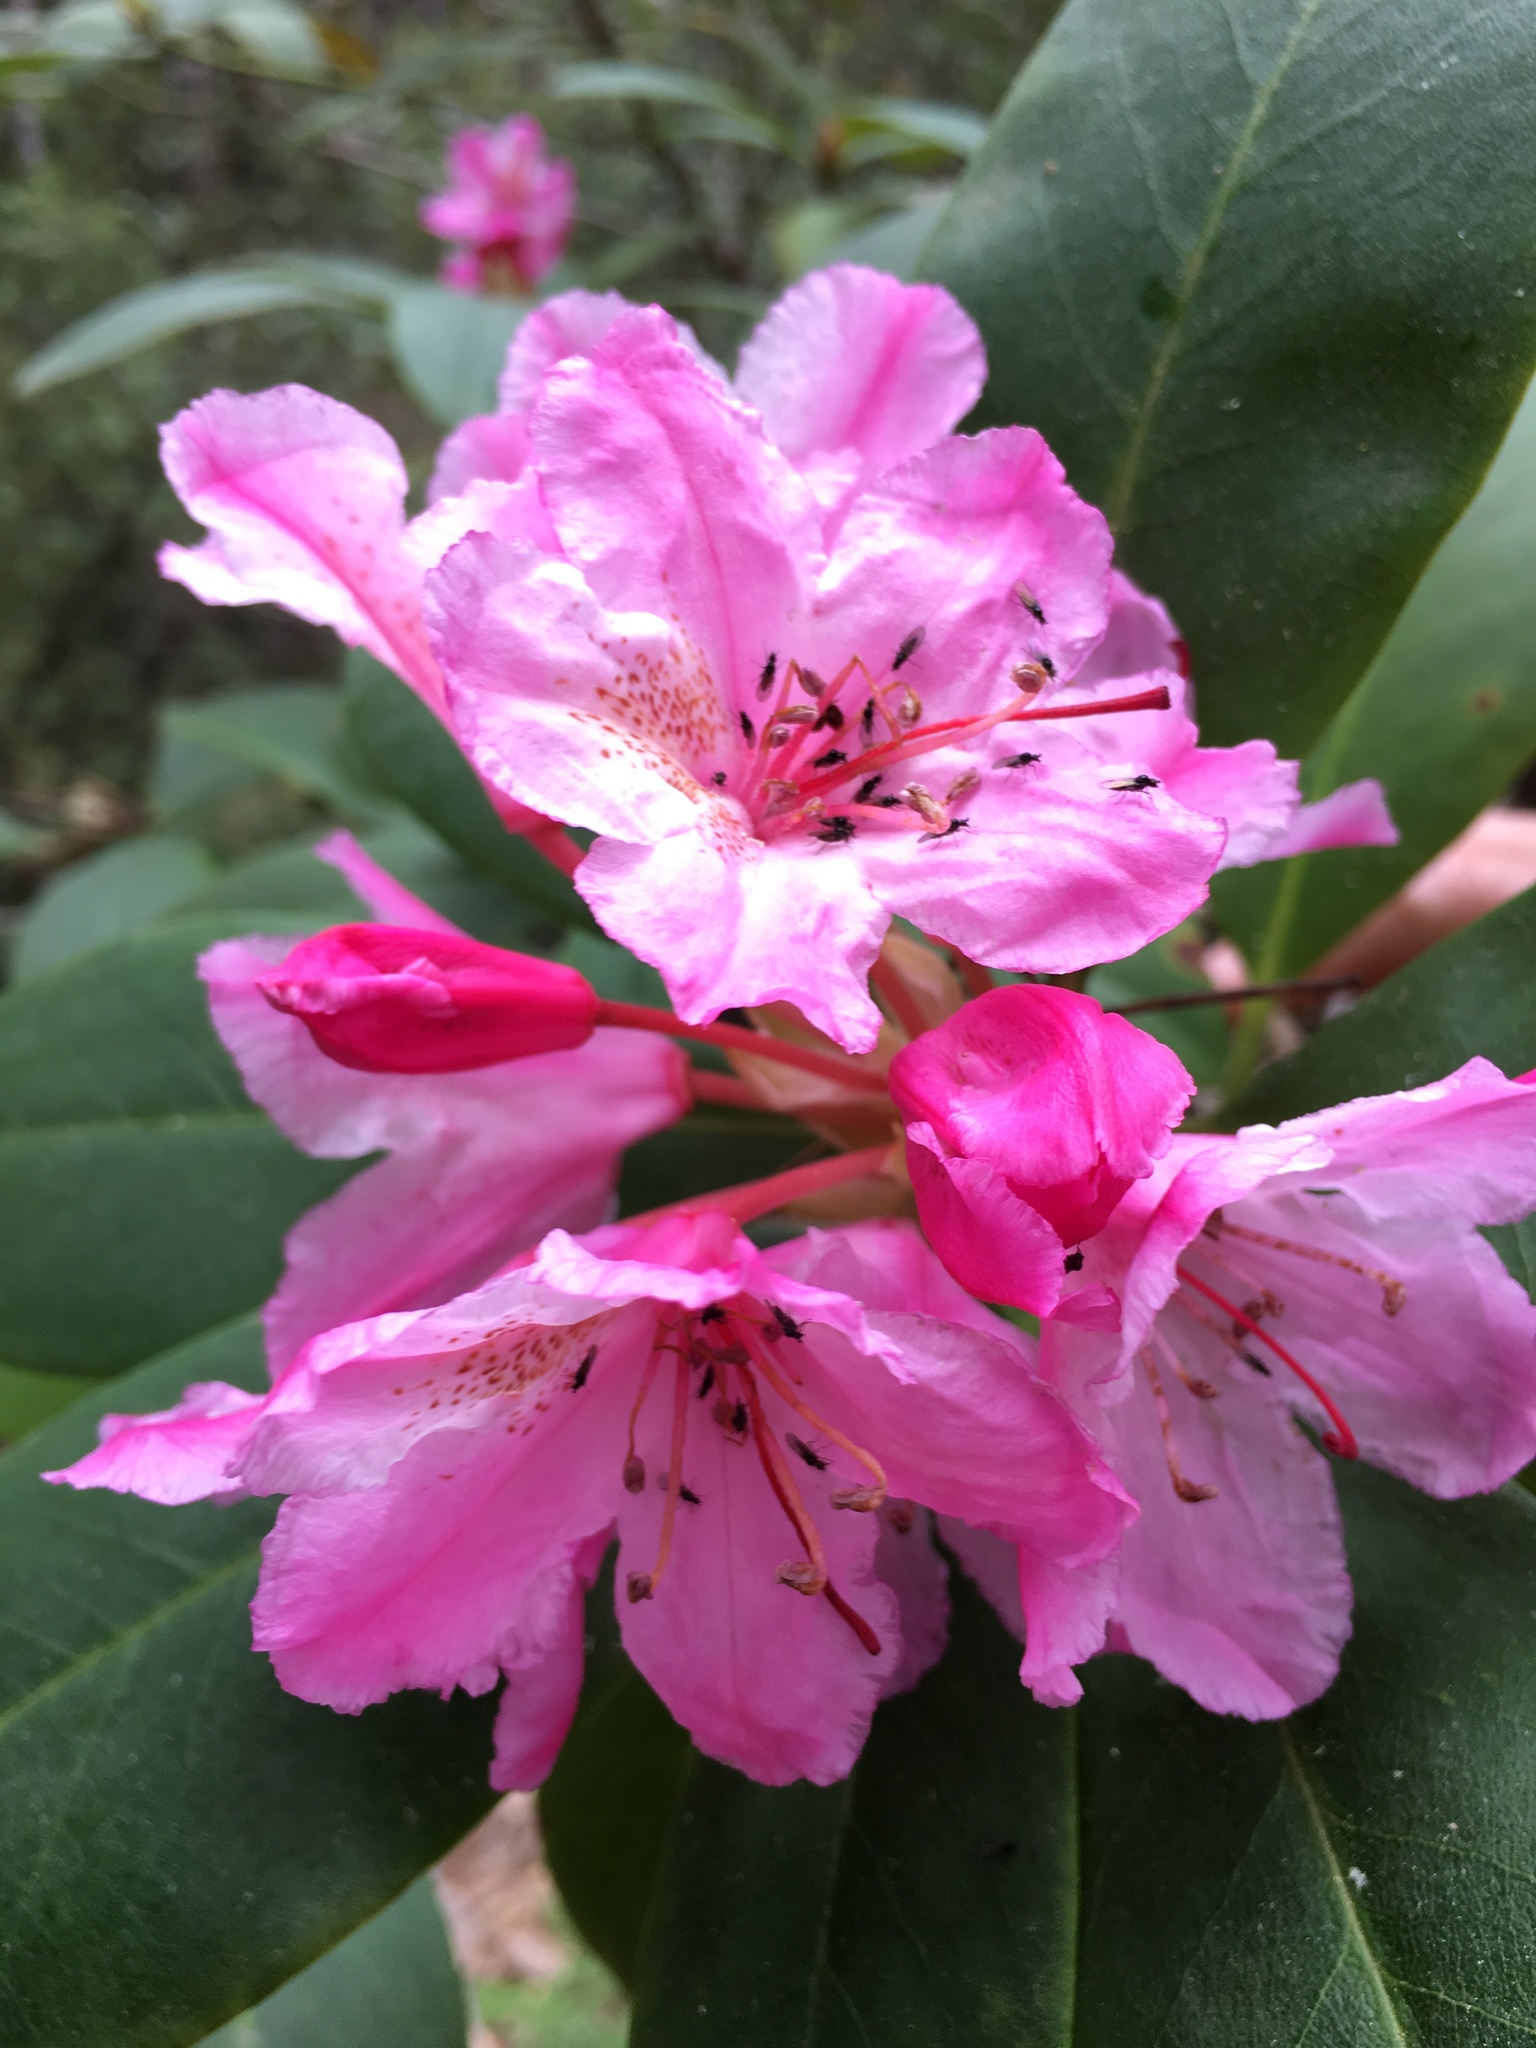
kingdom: Plantae
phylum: Tracheophyta
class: Magnoliopsida
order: Ericales
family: Ericaceae
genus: Rhododendron
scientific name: Rhododendron macrophyllum
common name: California rose bay
